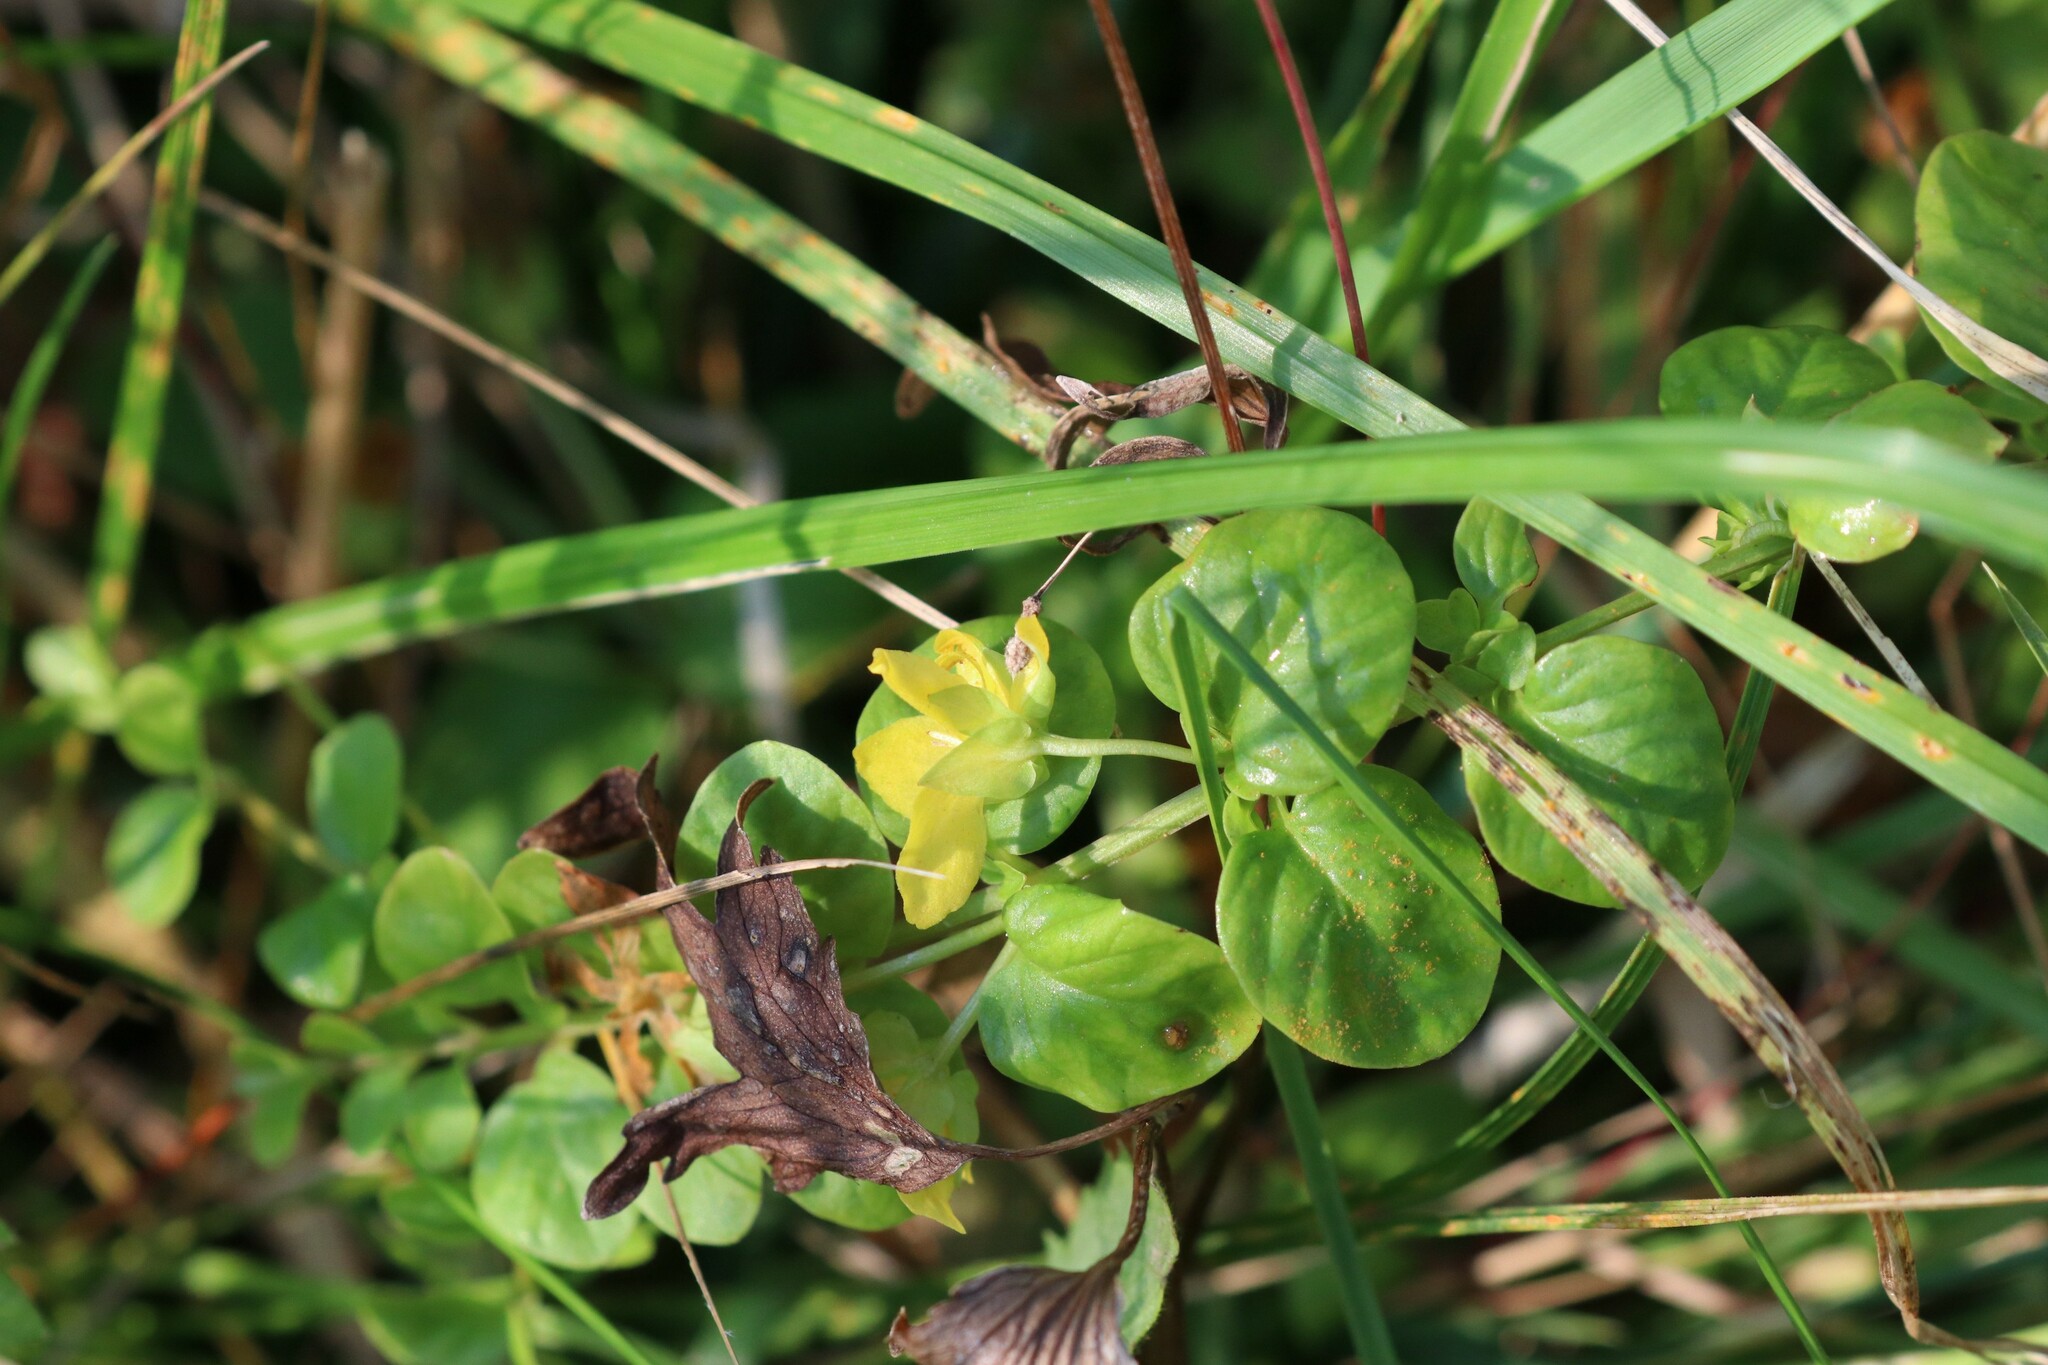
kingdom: Plantae
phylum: Tracheophyta
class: Magnoliopsida
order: Ericales
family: Primulaceae
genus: Lysimachia
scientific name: Lysimachia nummularia
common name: Moneywort
